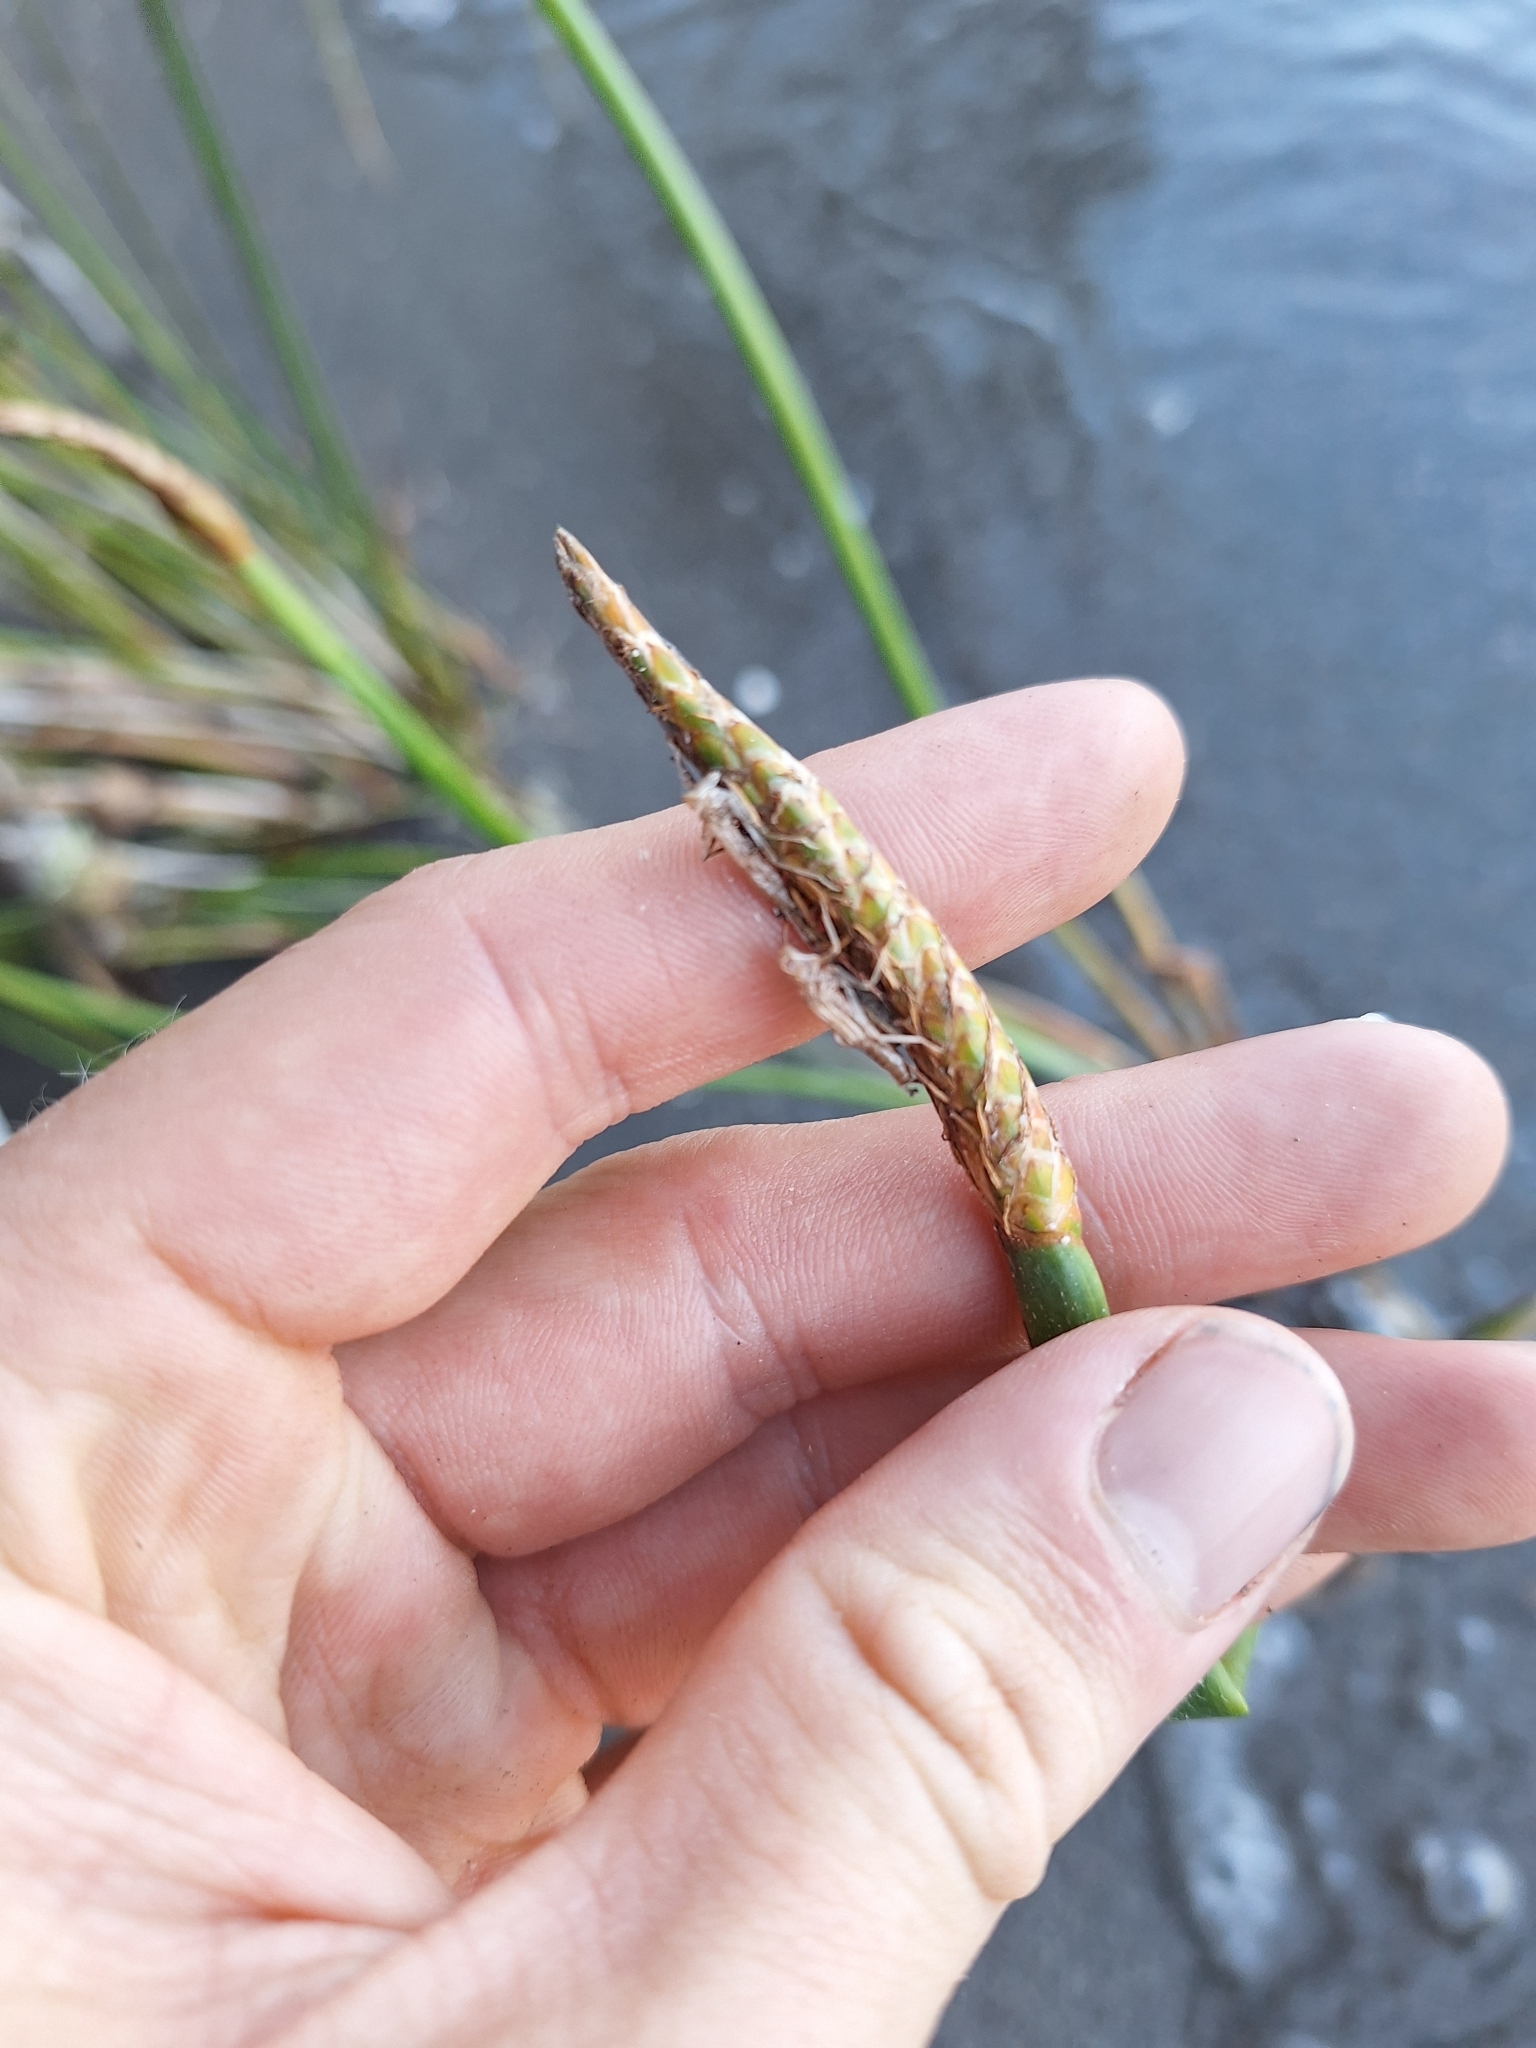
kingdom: Plantae
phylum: Tracheophyta
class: Liliopsida
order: Poales
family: Cyperaceae
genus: Eleocharis
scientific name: Eleocharis sphacelata
